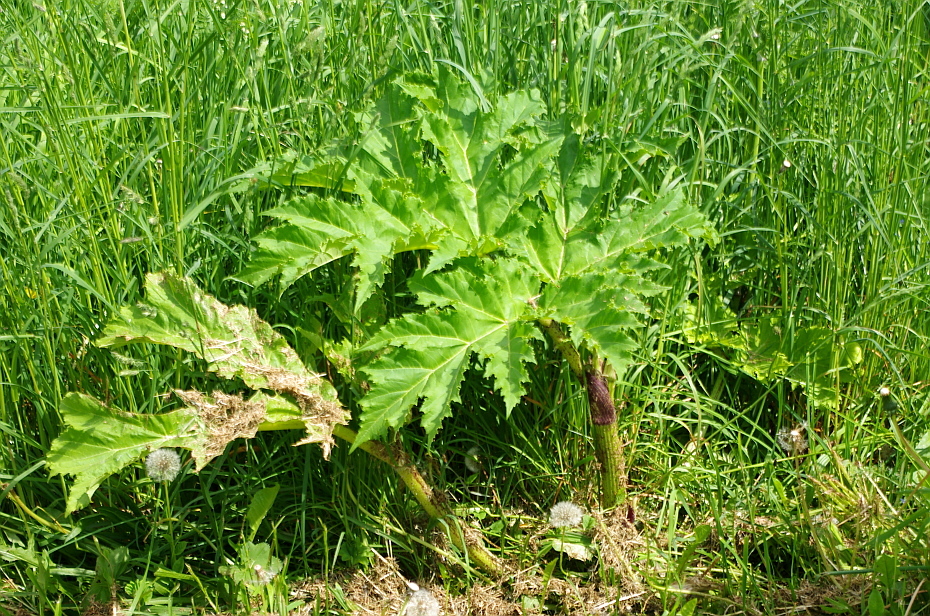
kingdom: Plantae
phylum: Tracheophyta
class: Magnoliopsida
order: Apiales
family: Apiaceae
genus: Heracleum
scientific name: Heracleum sosnowskyi
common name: Sosnowsky's hogweed
